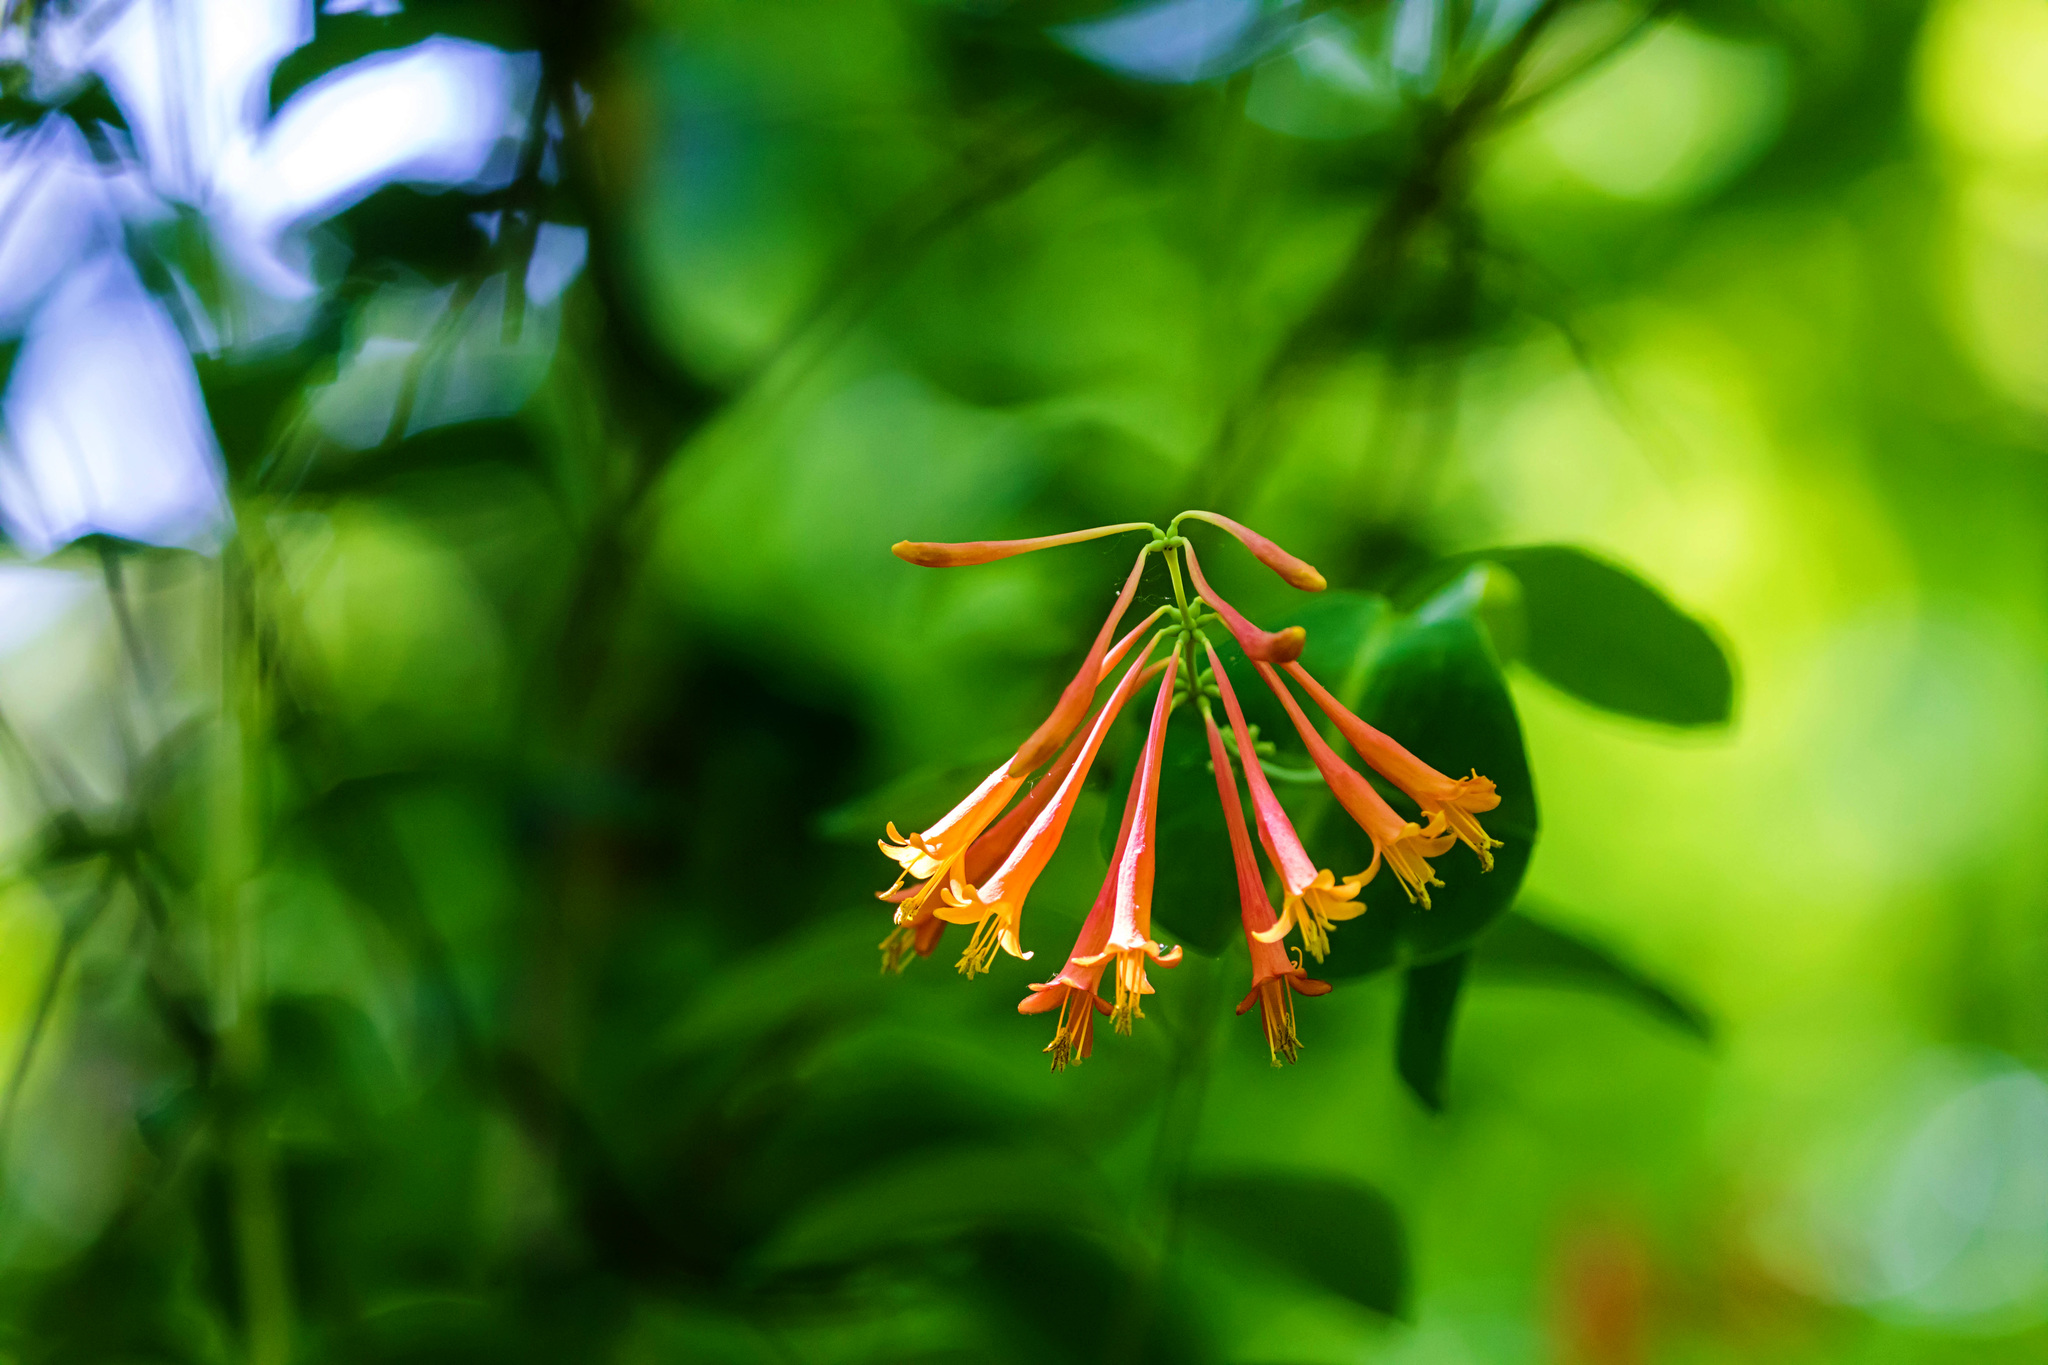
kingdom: Plantae
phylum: Tracheophyta
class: Magnoliopsida
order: Dipsacales
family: Caprifoliaceae
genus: Lonicera
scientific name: Lonicera sempervirens
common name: Coral honeysuckle
